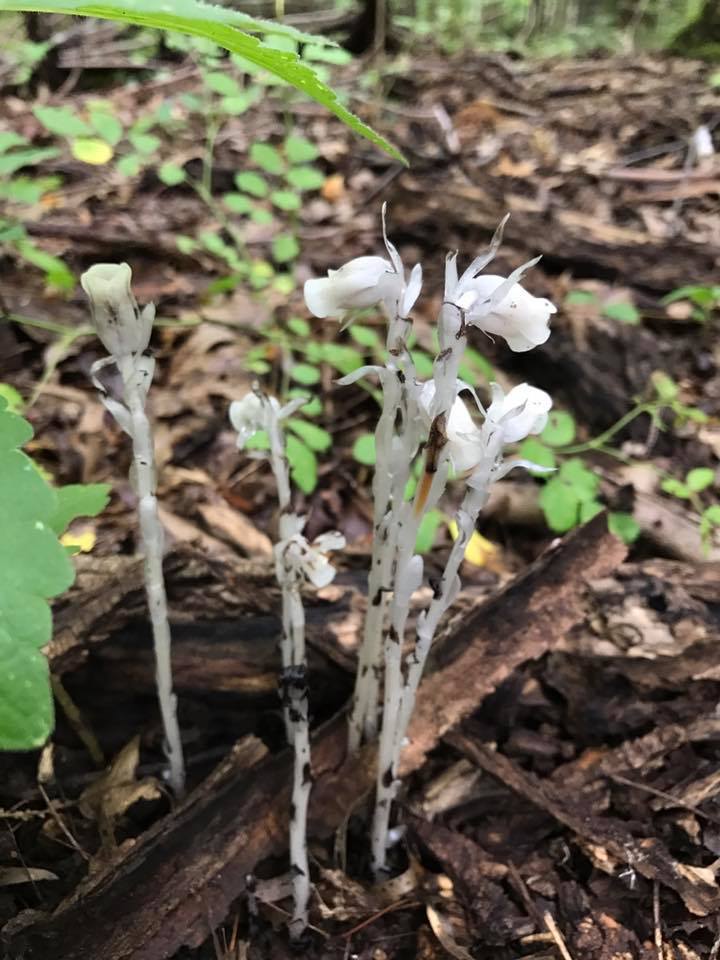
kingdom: Plantae
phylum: Tracheophyta
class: Magnoliopsida
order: Ericales
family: Ericaceae
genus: Monotropa
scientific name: Monotropa uniflora
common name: Convulsion root
